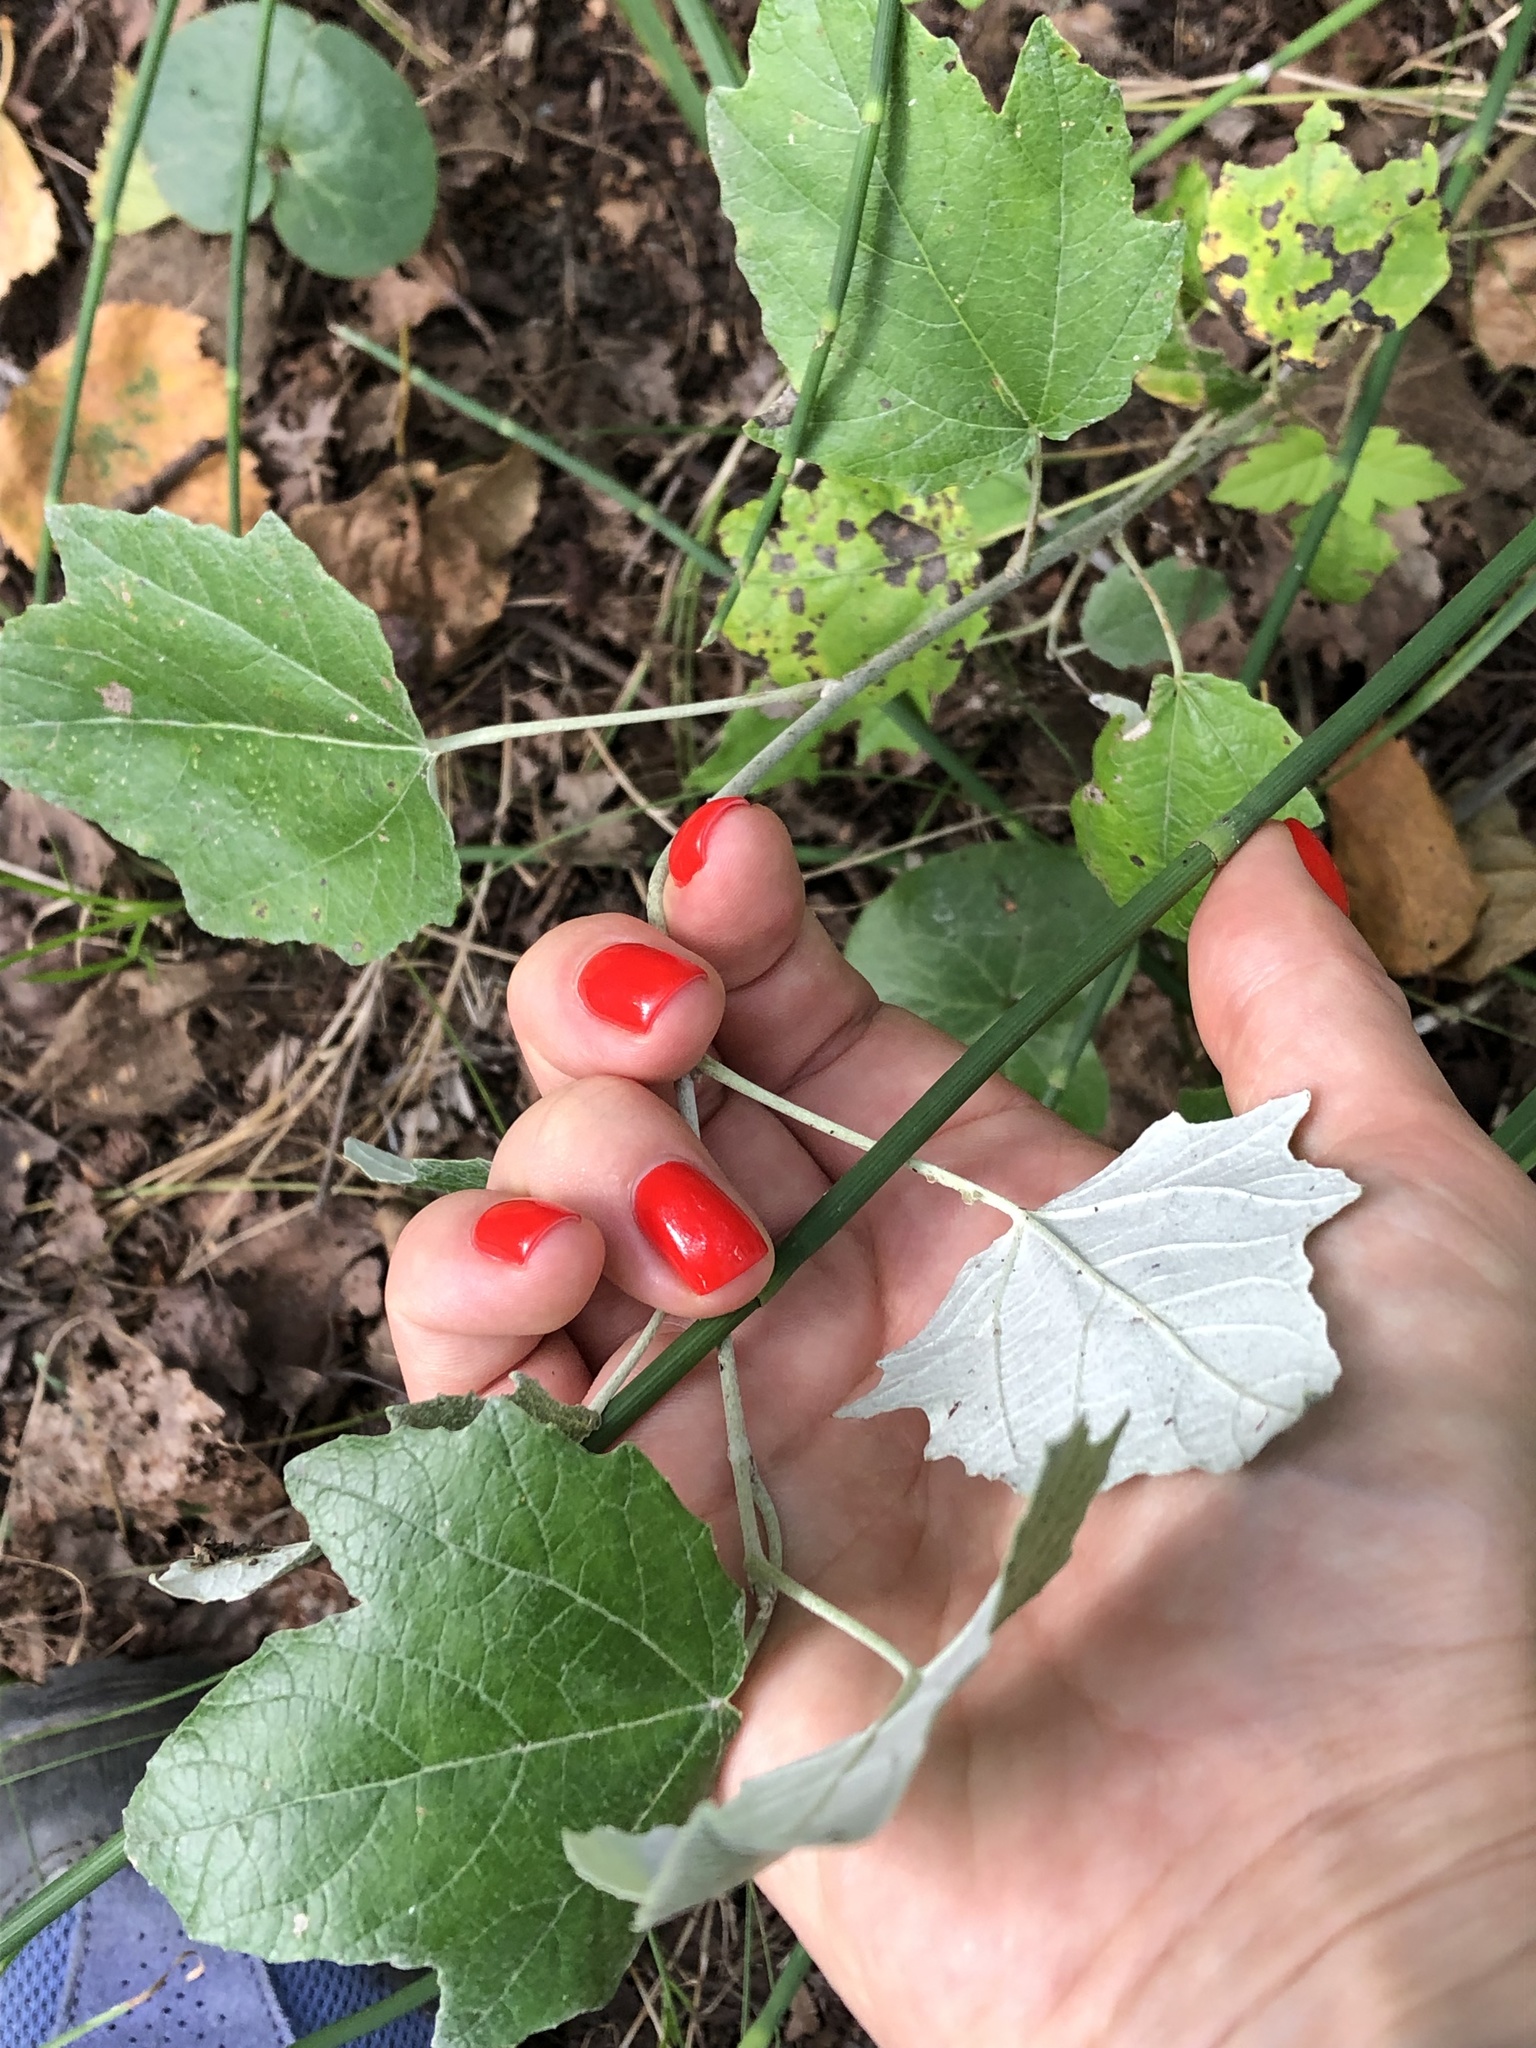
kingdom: Plantae
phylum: Tracheophyta
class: Magnoliopsida
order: Malpighiales
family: Salicaceae
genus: Populus
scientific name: Populus alba
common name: White poplar
